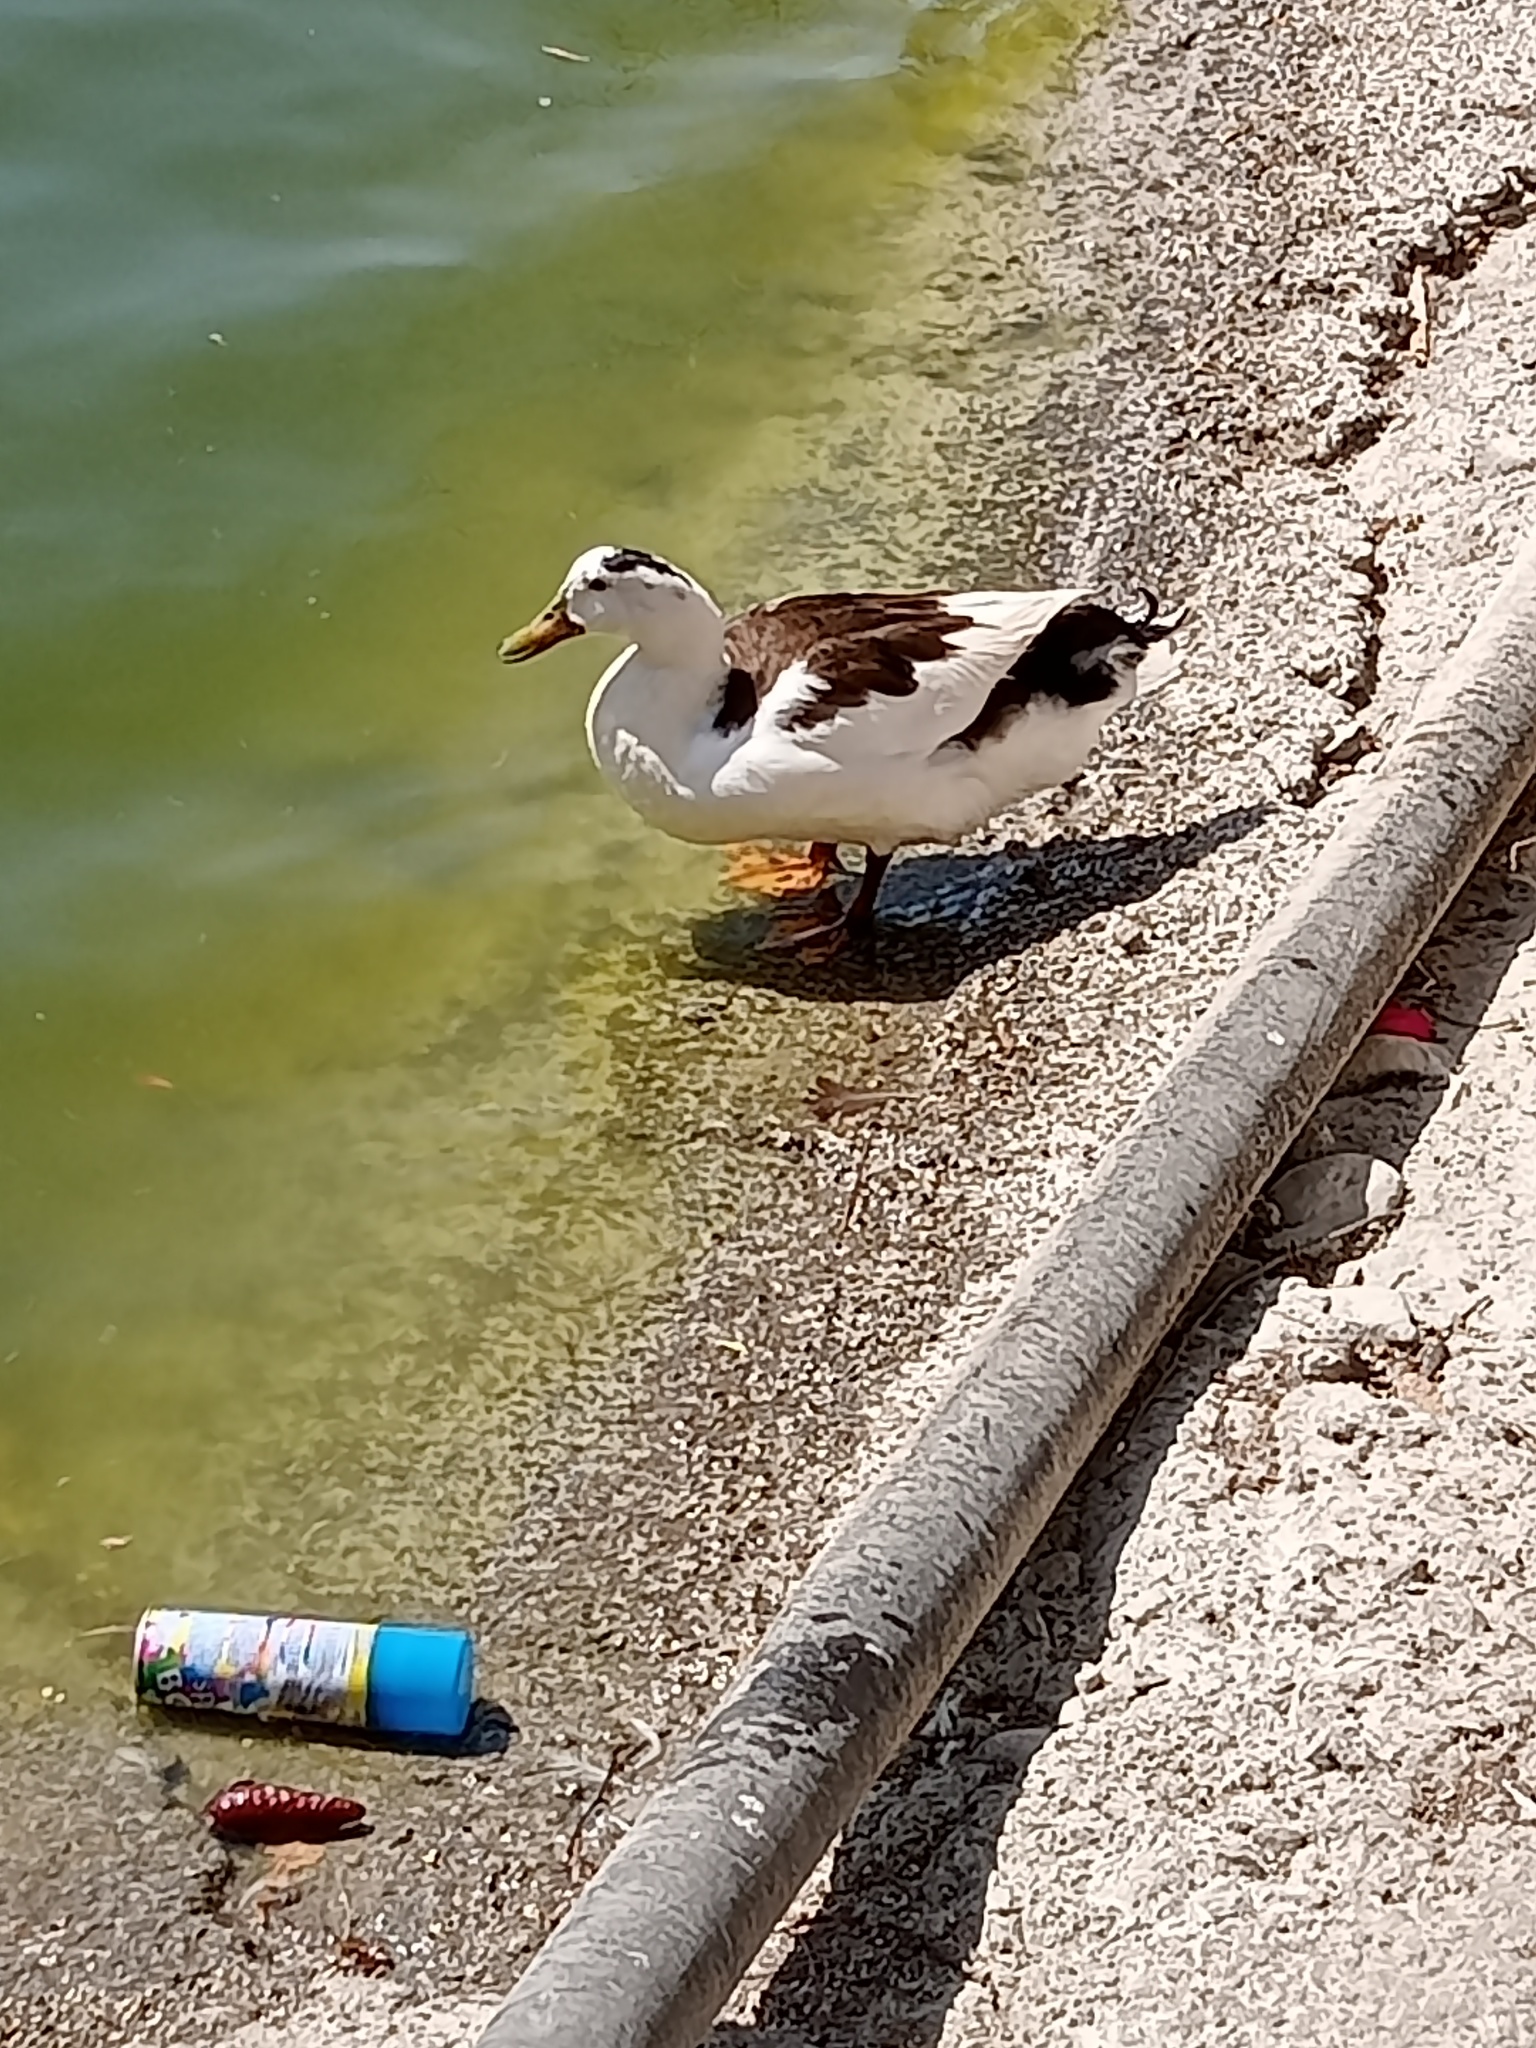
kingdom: Animalia
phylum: Chordata
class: Aves
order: Anseriformes
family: Anatidae
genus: Anas
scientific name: Anas platyrhynchos
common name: Mallard
